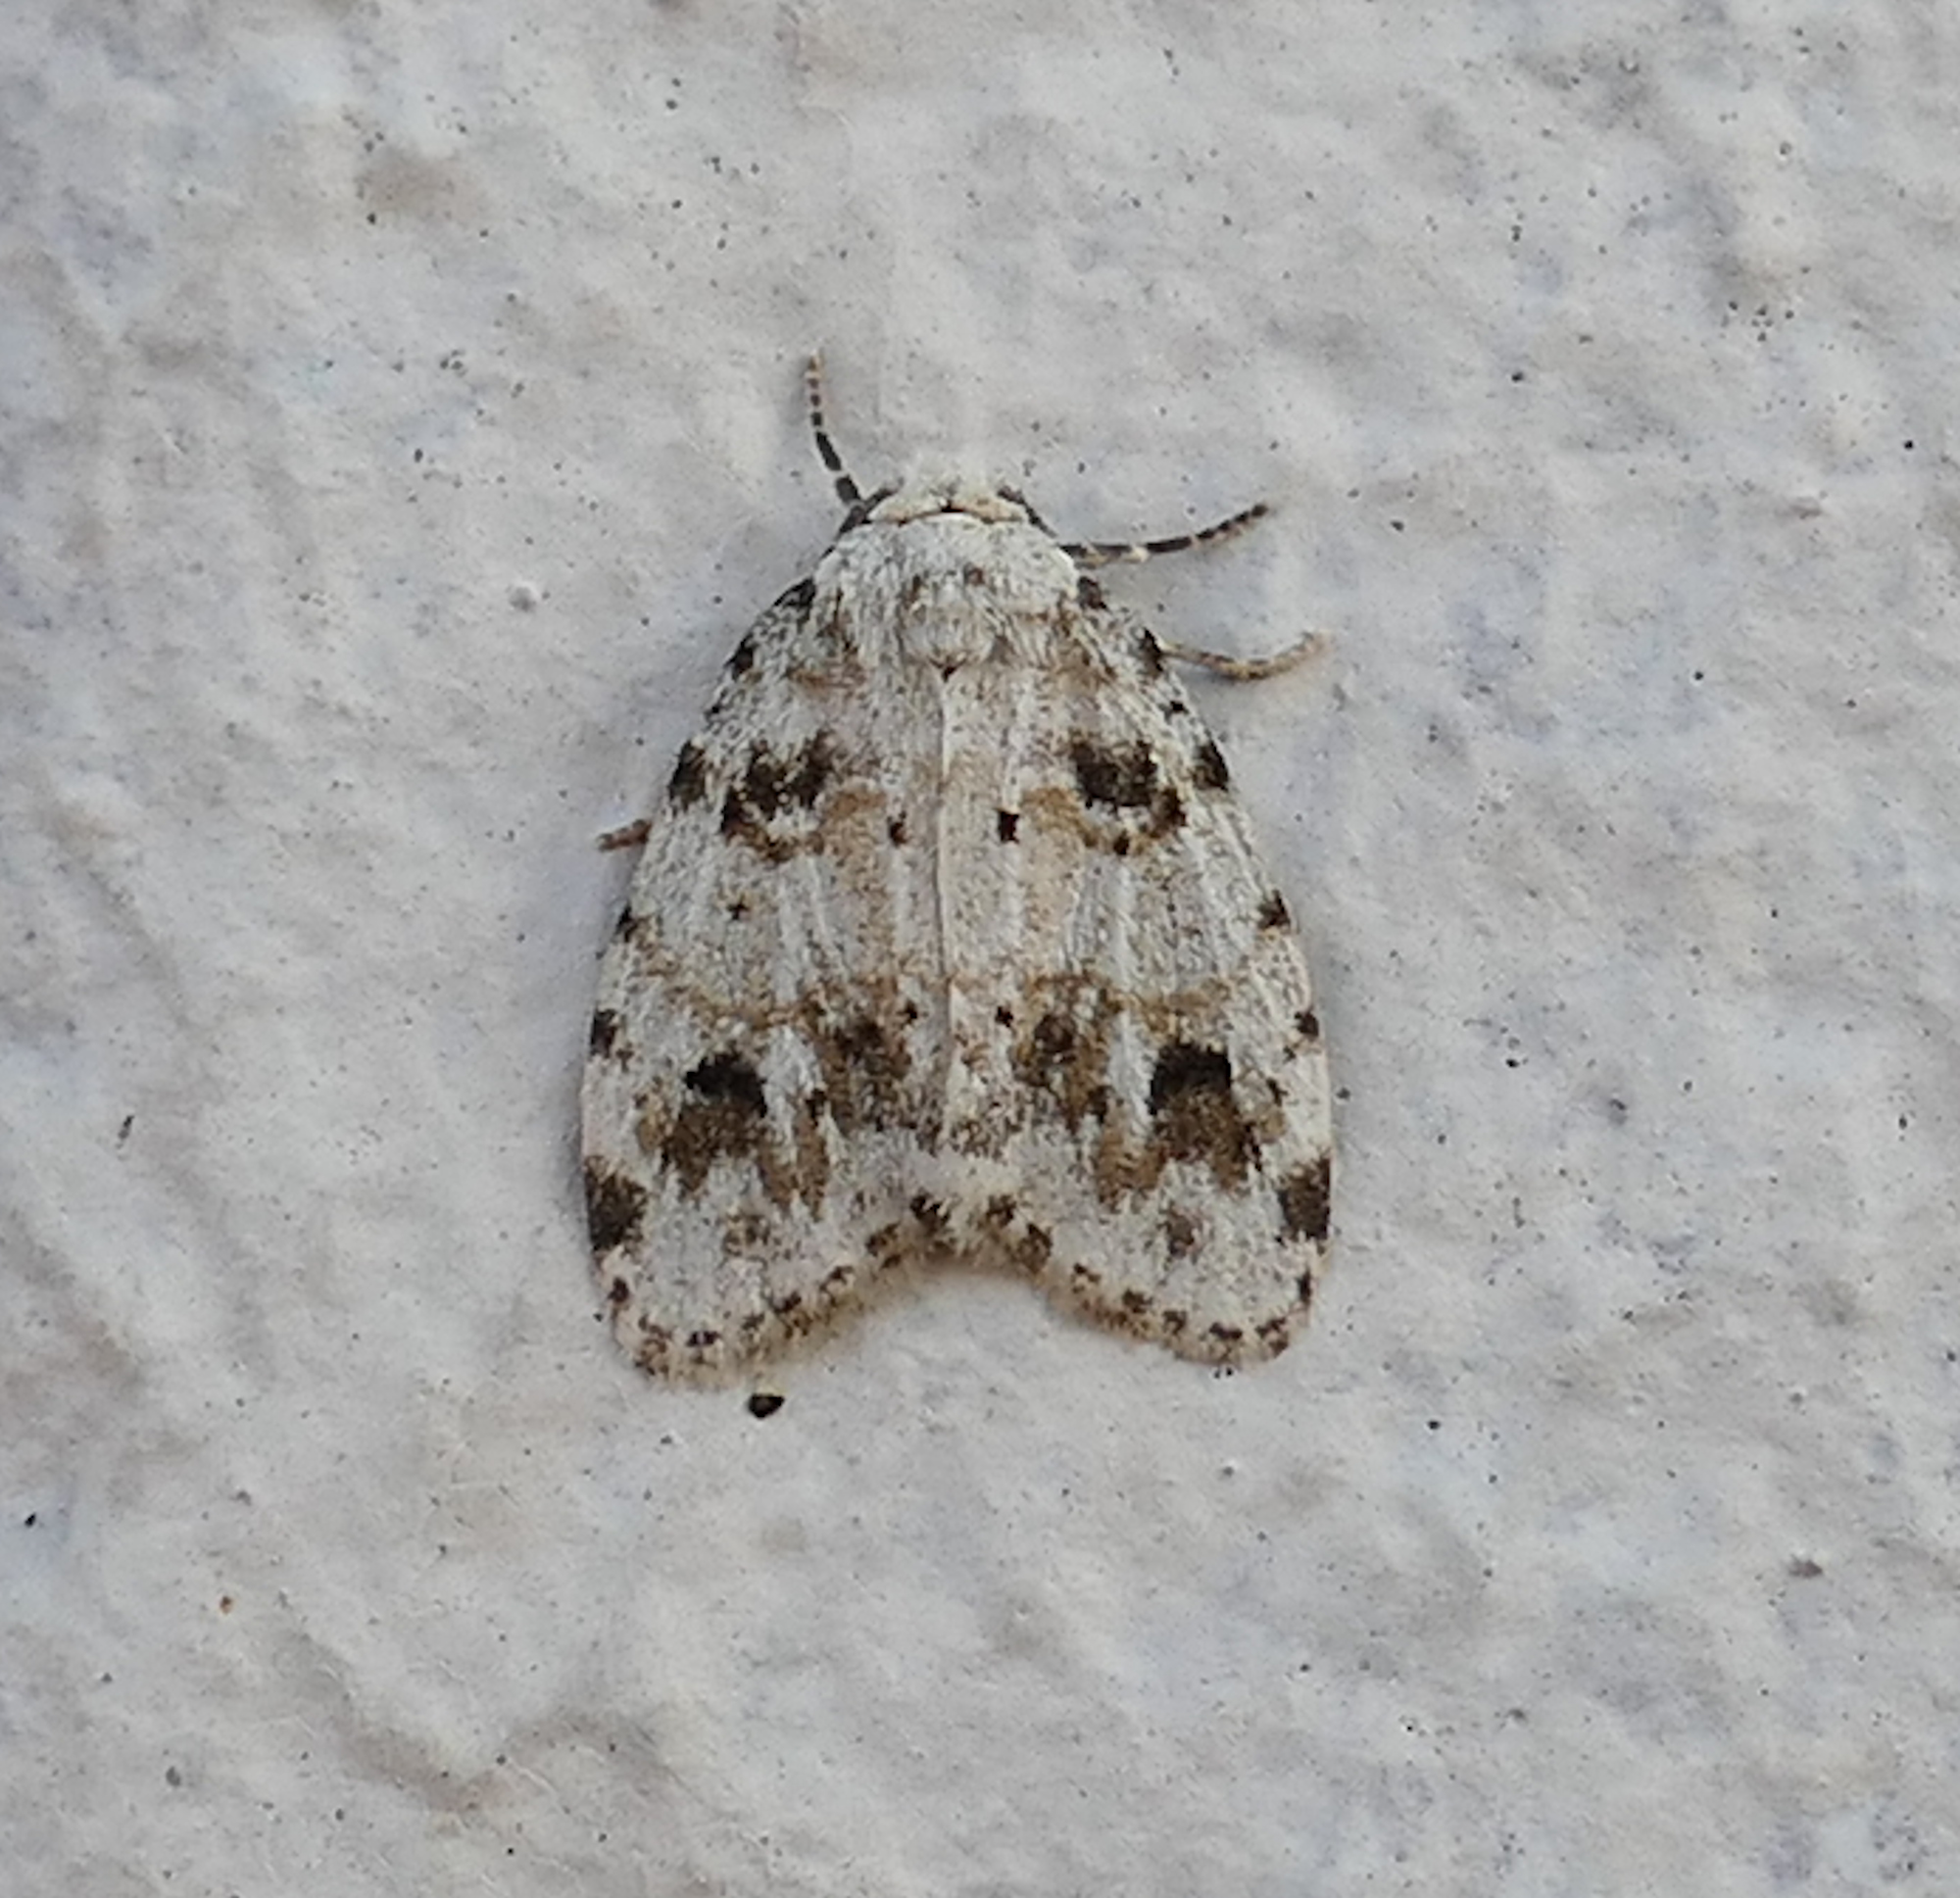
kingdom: Animalia
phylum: Arthropoda
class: Insecta
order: Lepidoptera
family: Erebidae
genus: Clemensia
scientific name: Clemensia ochreata
